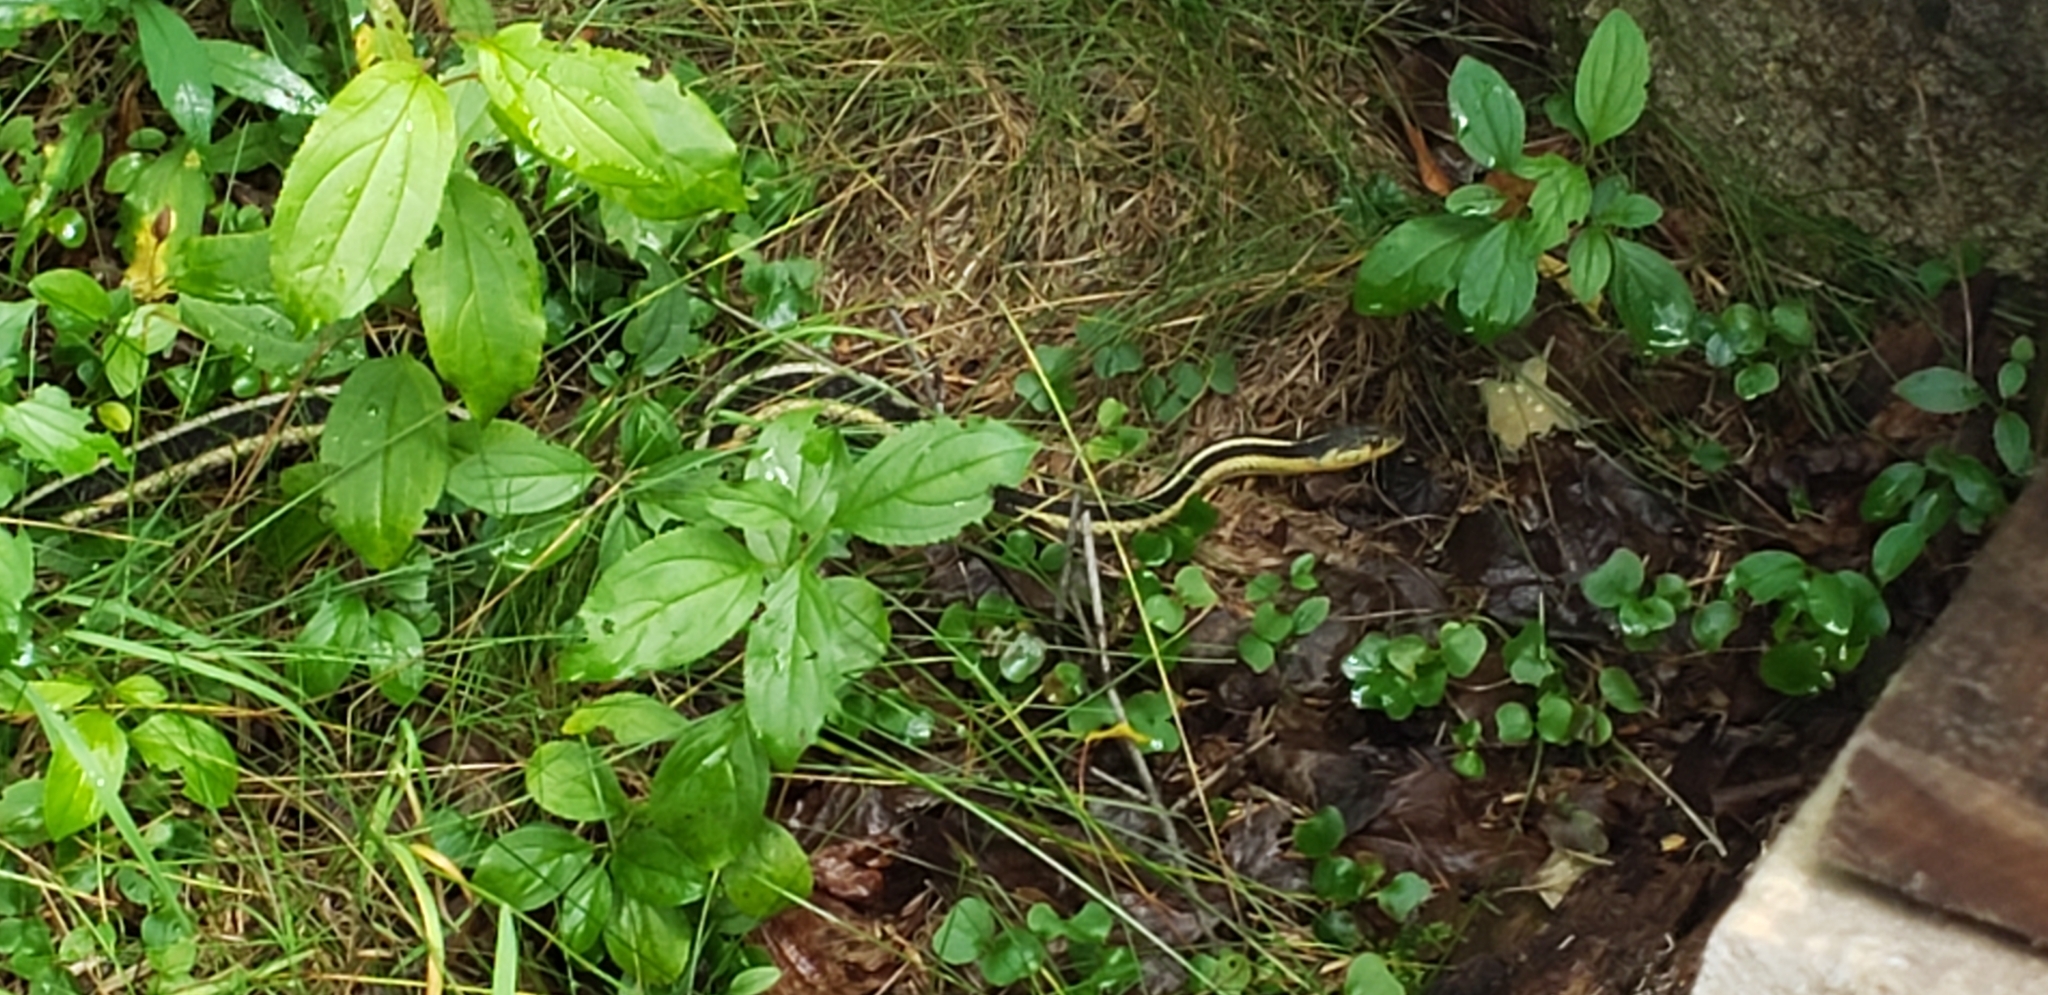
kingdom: Animalia
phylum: Chordata
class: Squamata
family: Colubridae
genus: Thamnophis
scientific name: Thamnophis sirtalis
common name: Common garter snake
